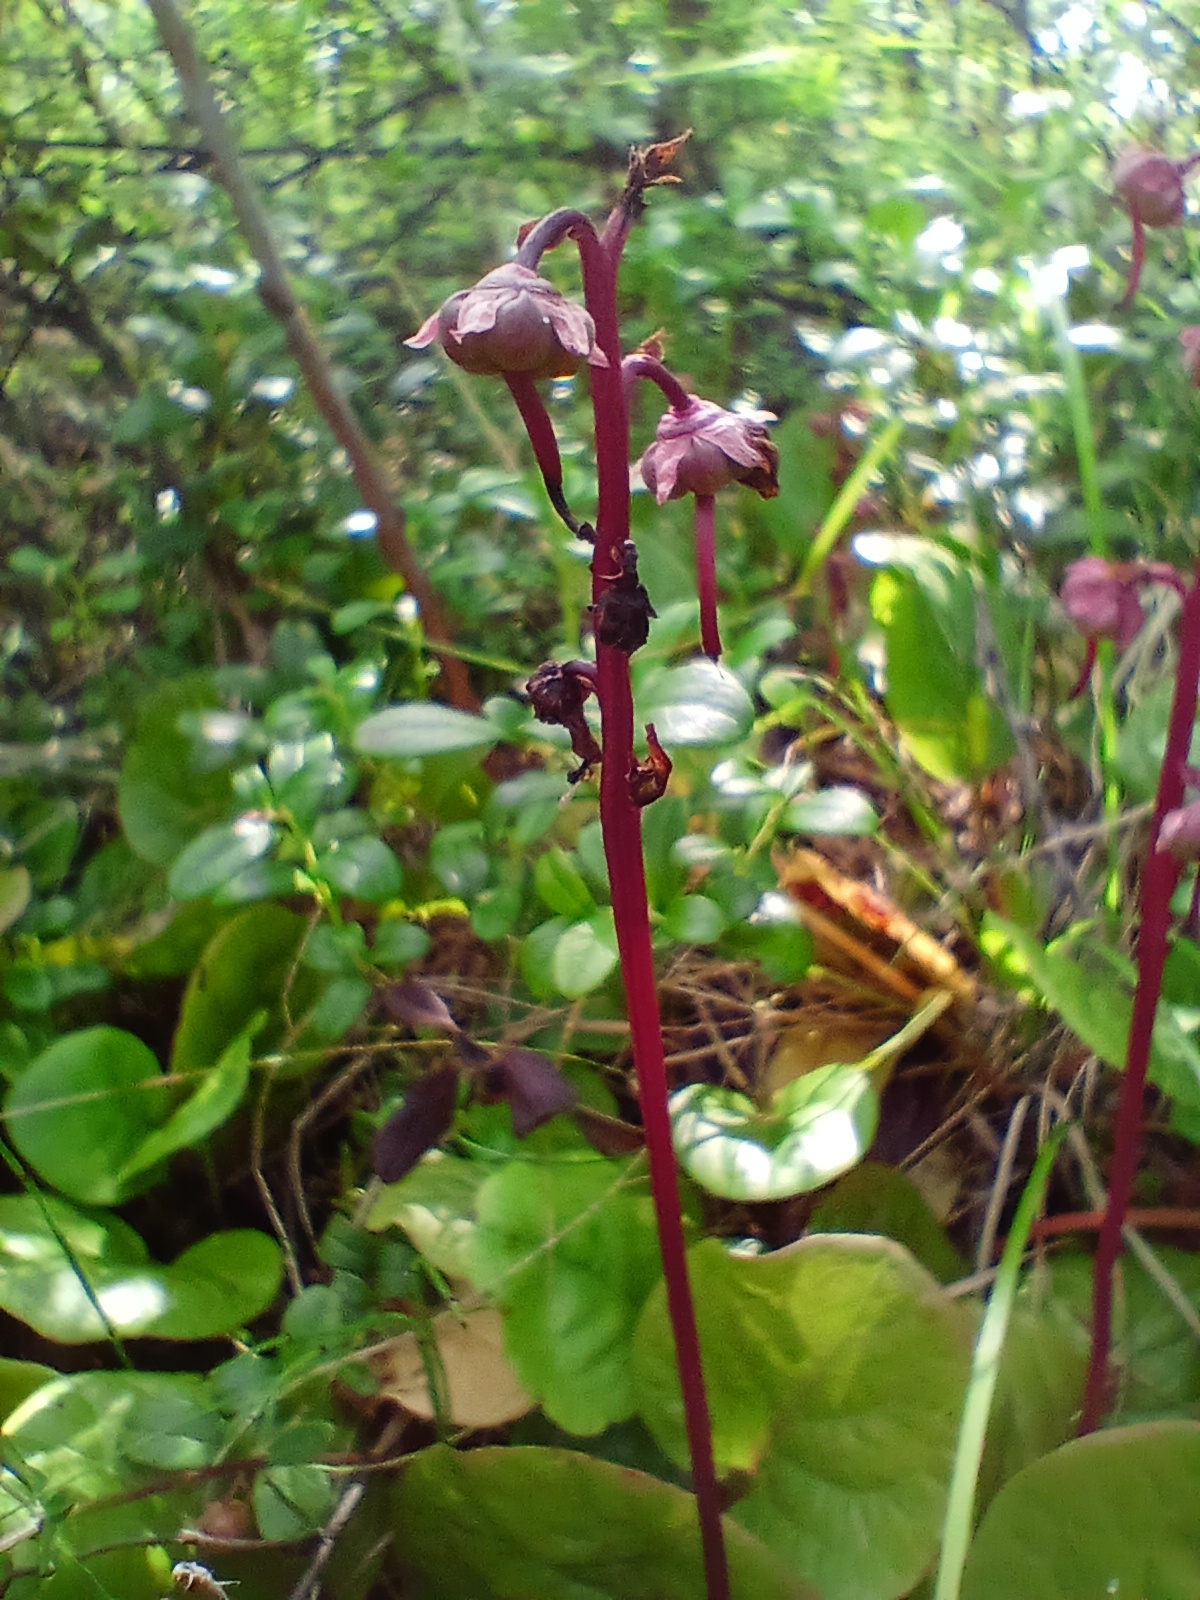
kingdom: Plantae
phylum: Tracheophyta
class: Magnoliopsida
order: Ericales
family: Ericaceae
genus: Pyrola
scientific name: Pyrola asarifolia
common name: Bog wintergreen
